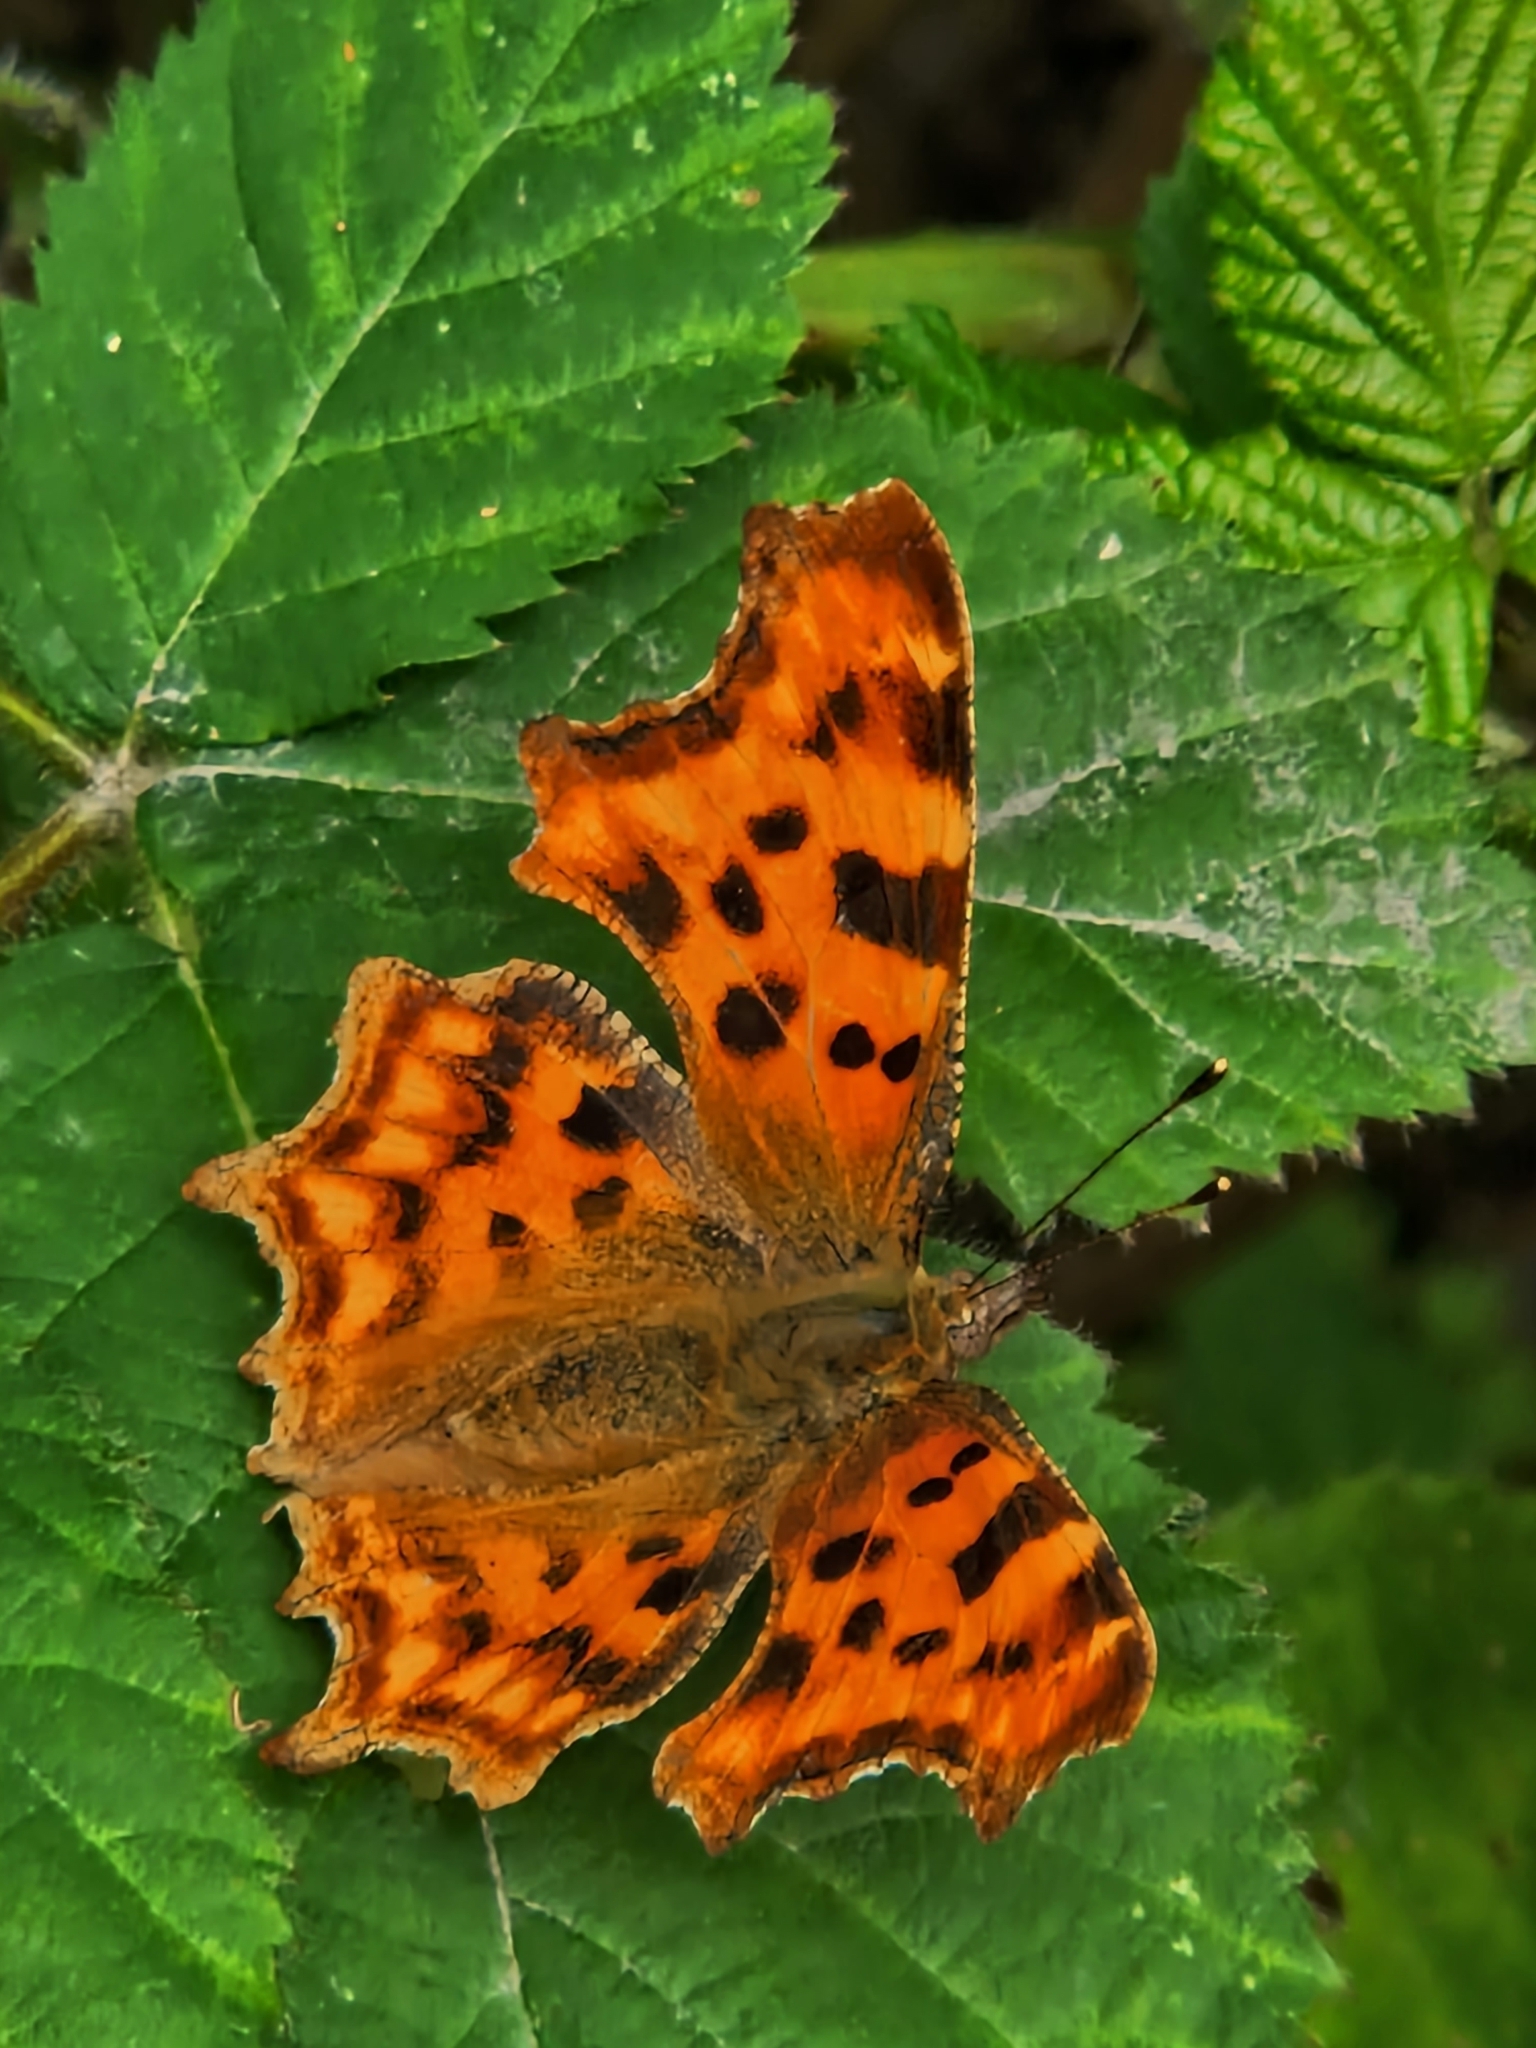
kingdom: Animalia
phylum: Arthropoda
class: Insecta
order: Lepidoptera
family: Nymphalidae
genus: Polygonia
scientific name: Polygonia c-album
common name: Comma
